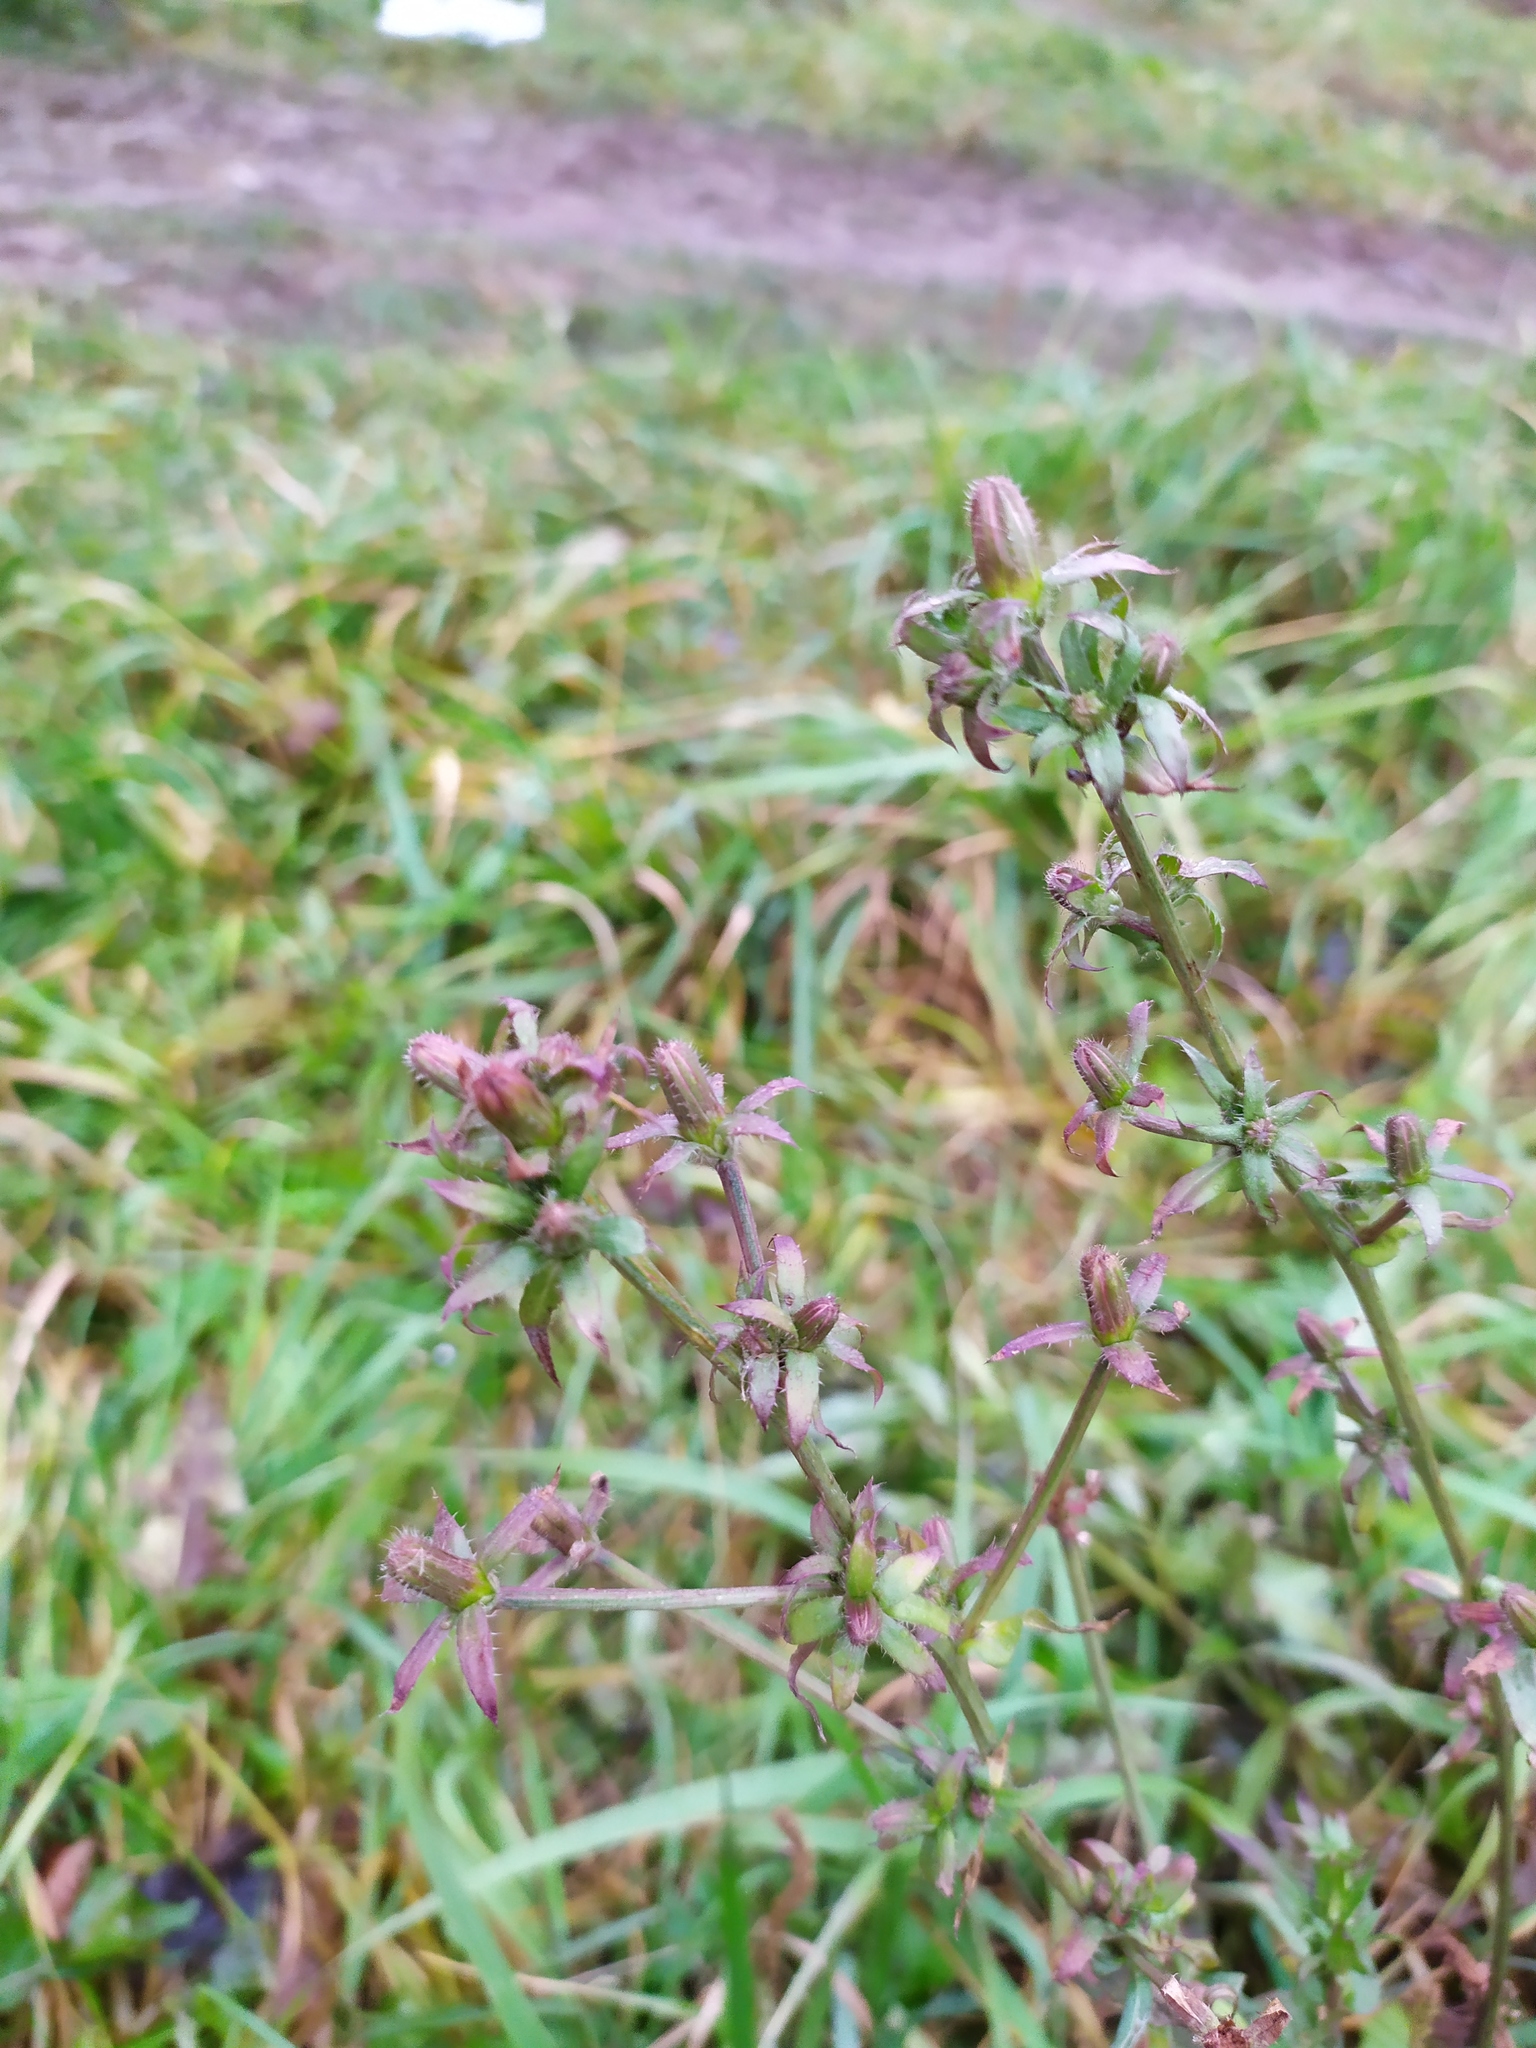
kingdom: Plantae
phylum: Tracheophyta
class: Magnoliopsida
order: Asterales
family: Asteraceae
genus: Cichorium
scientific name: Cichorium intybus
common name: Chicory
